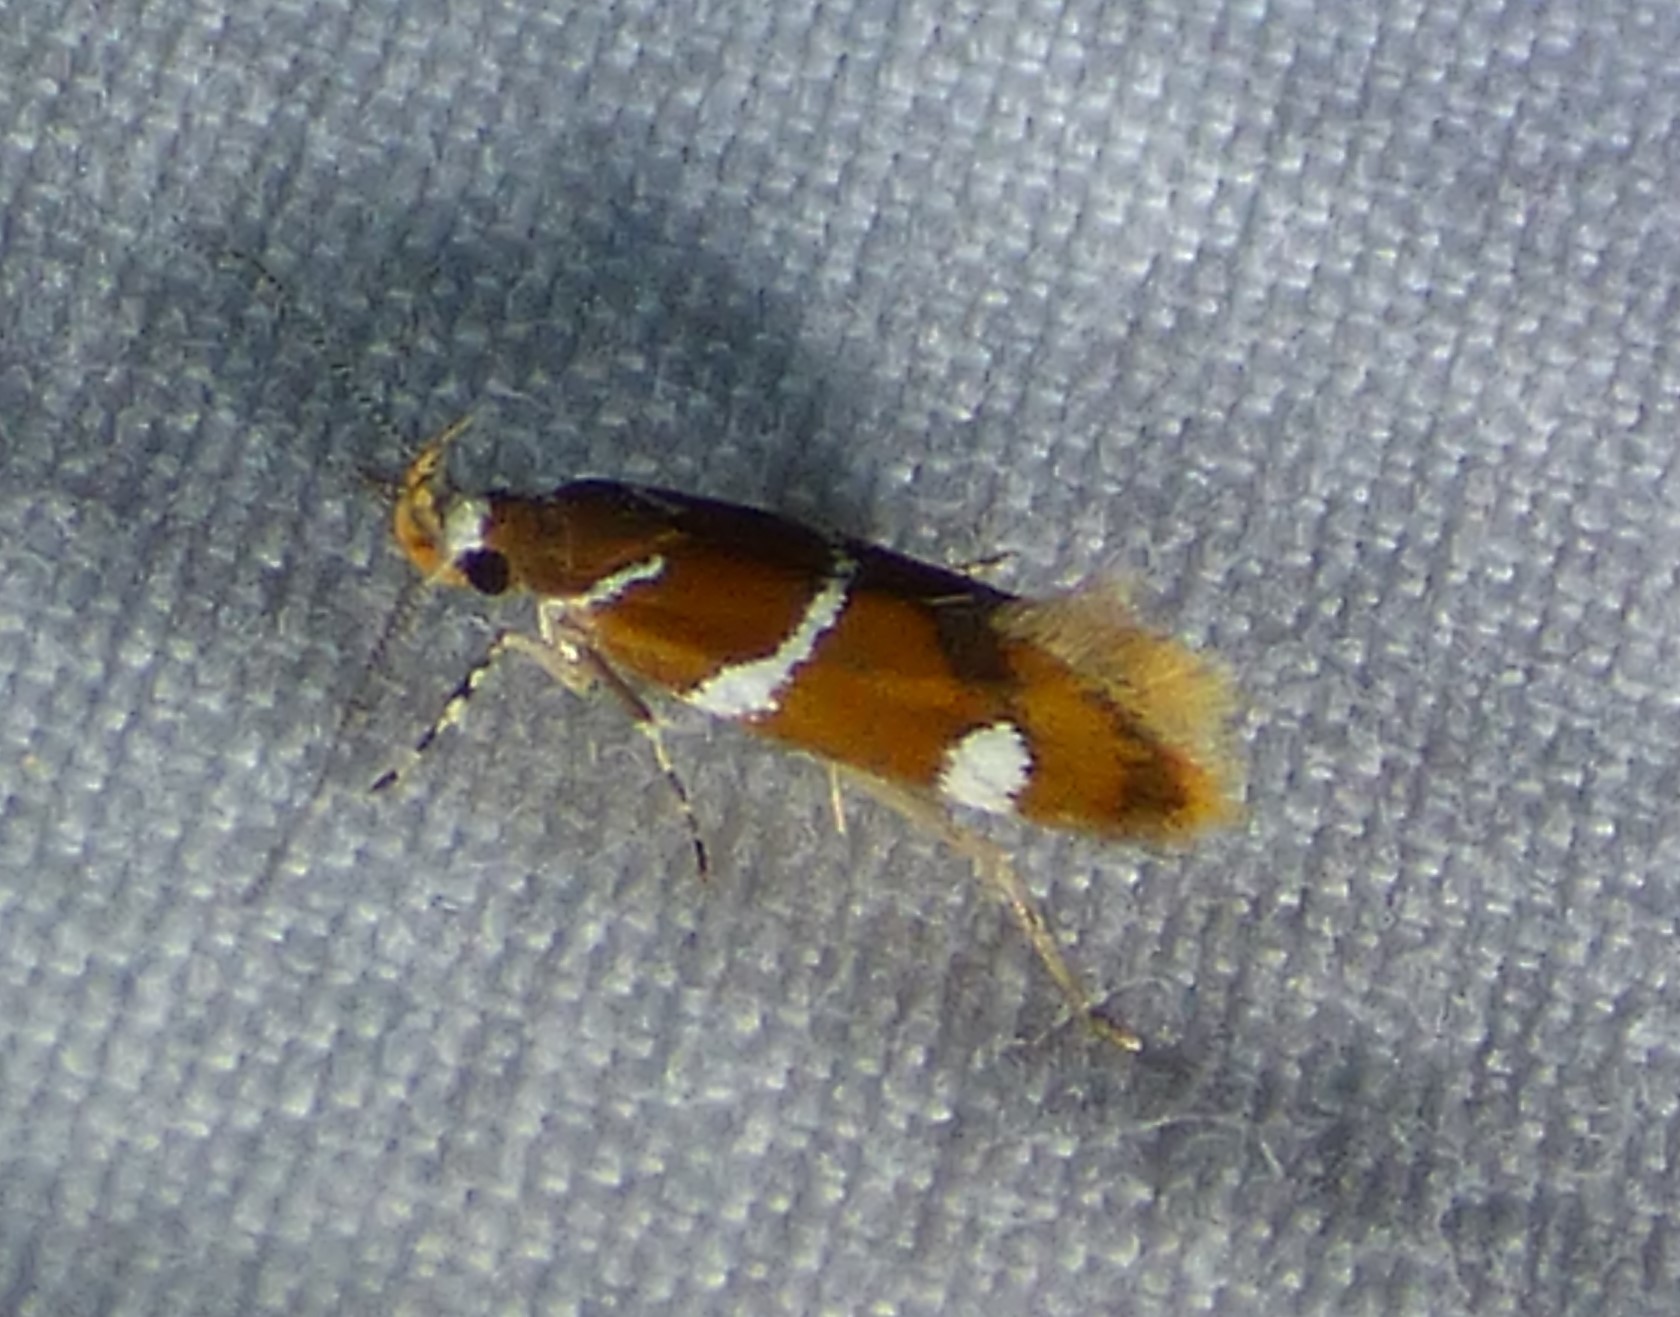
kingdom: Animalia
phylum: Arthropoda
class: Insecta
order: Lepidoptera
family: Oecophoridae
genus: Promalactis
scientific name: Promalactis suzukiella
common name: Moth
